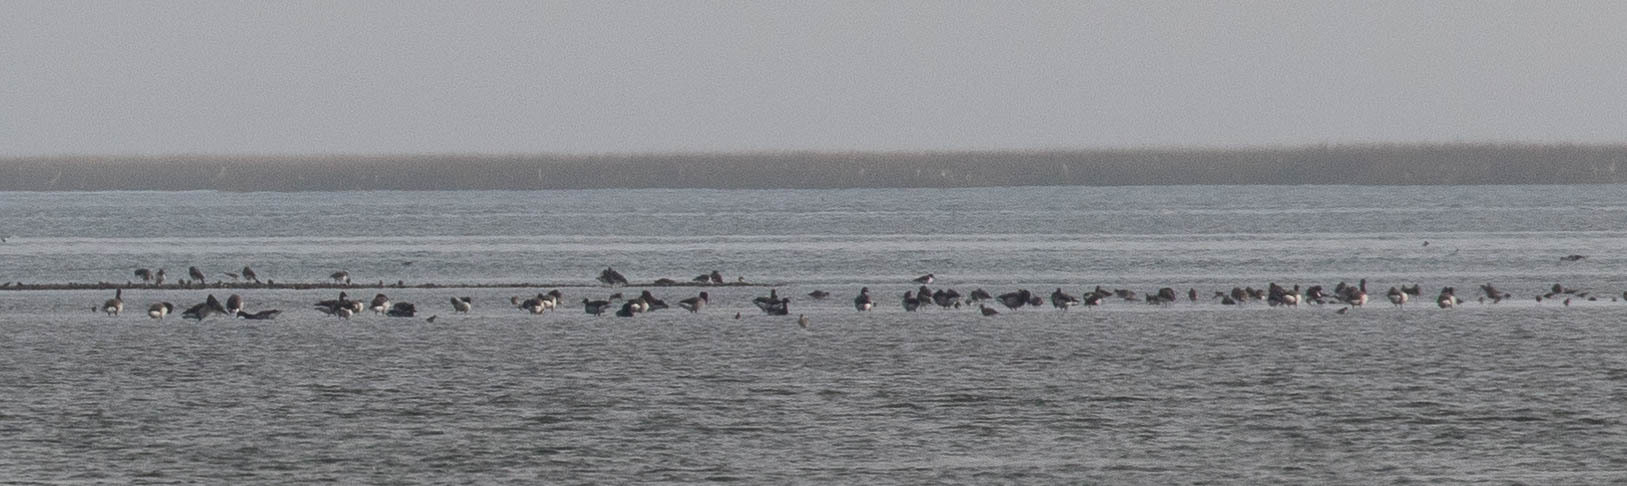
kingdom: Animalia
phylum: Chordata
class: Aves
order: Anseriformes
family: Anatidae
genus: Branta
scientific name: Branta bernicla
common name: Brant goose
